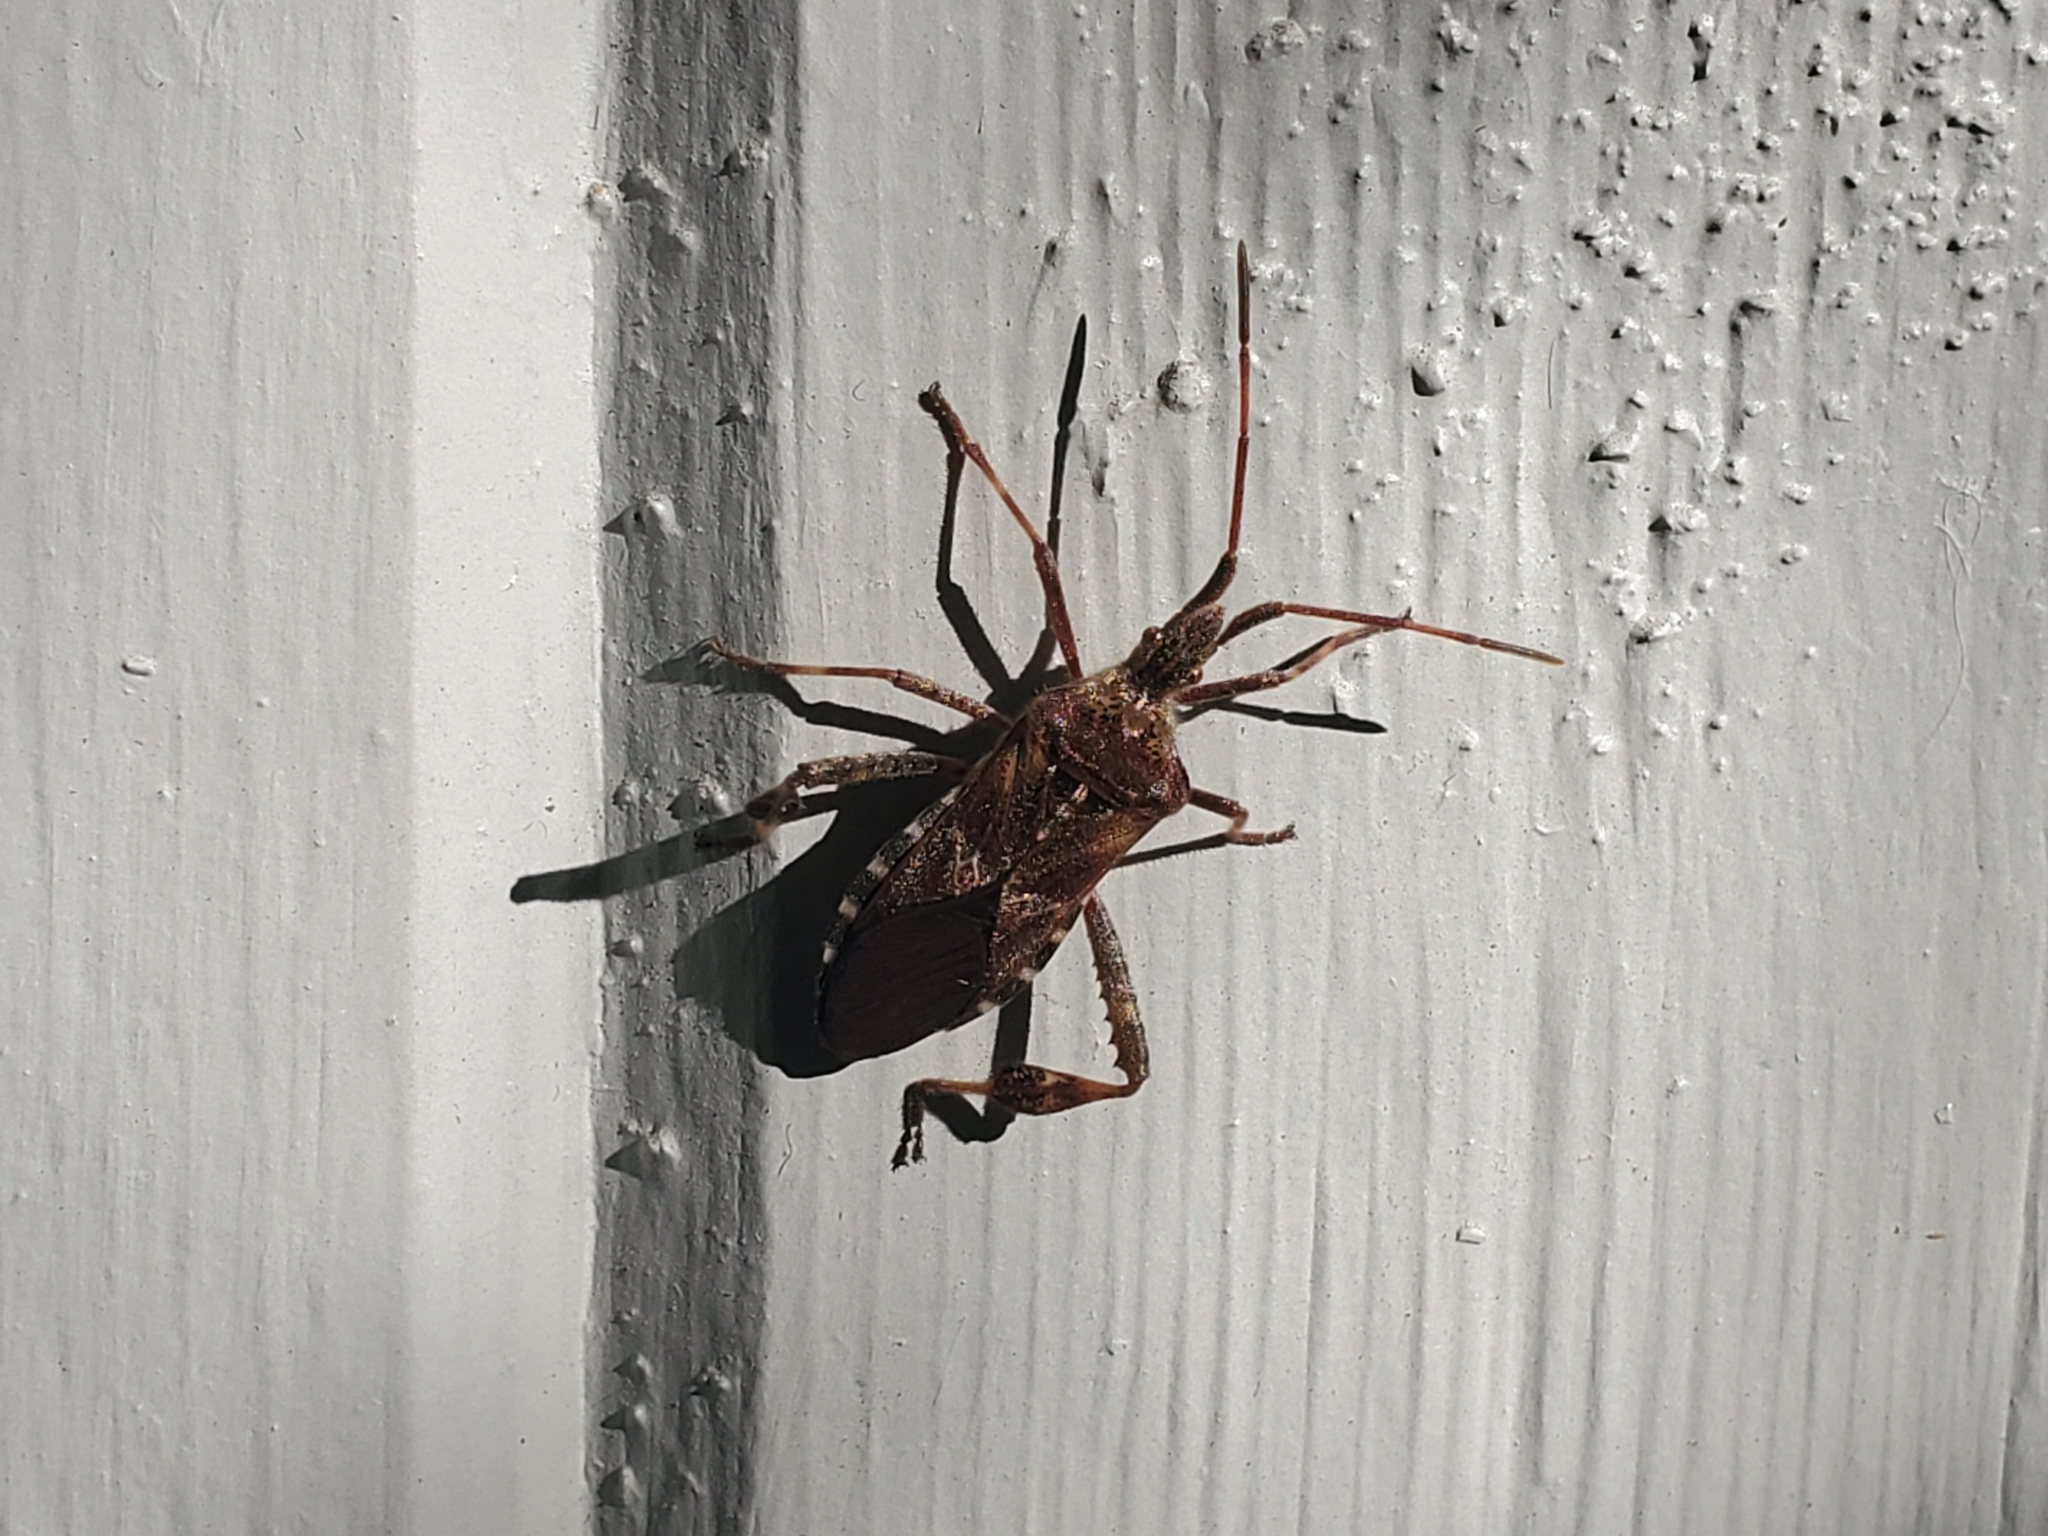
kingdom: Animalia
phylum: Arthropoda
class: Insecta
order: Hemiptera
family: Coreidae
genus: Leptoglossus
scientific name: Leptoglossus occidentalis
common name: Western conifer-seed bug
